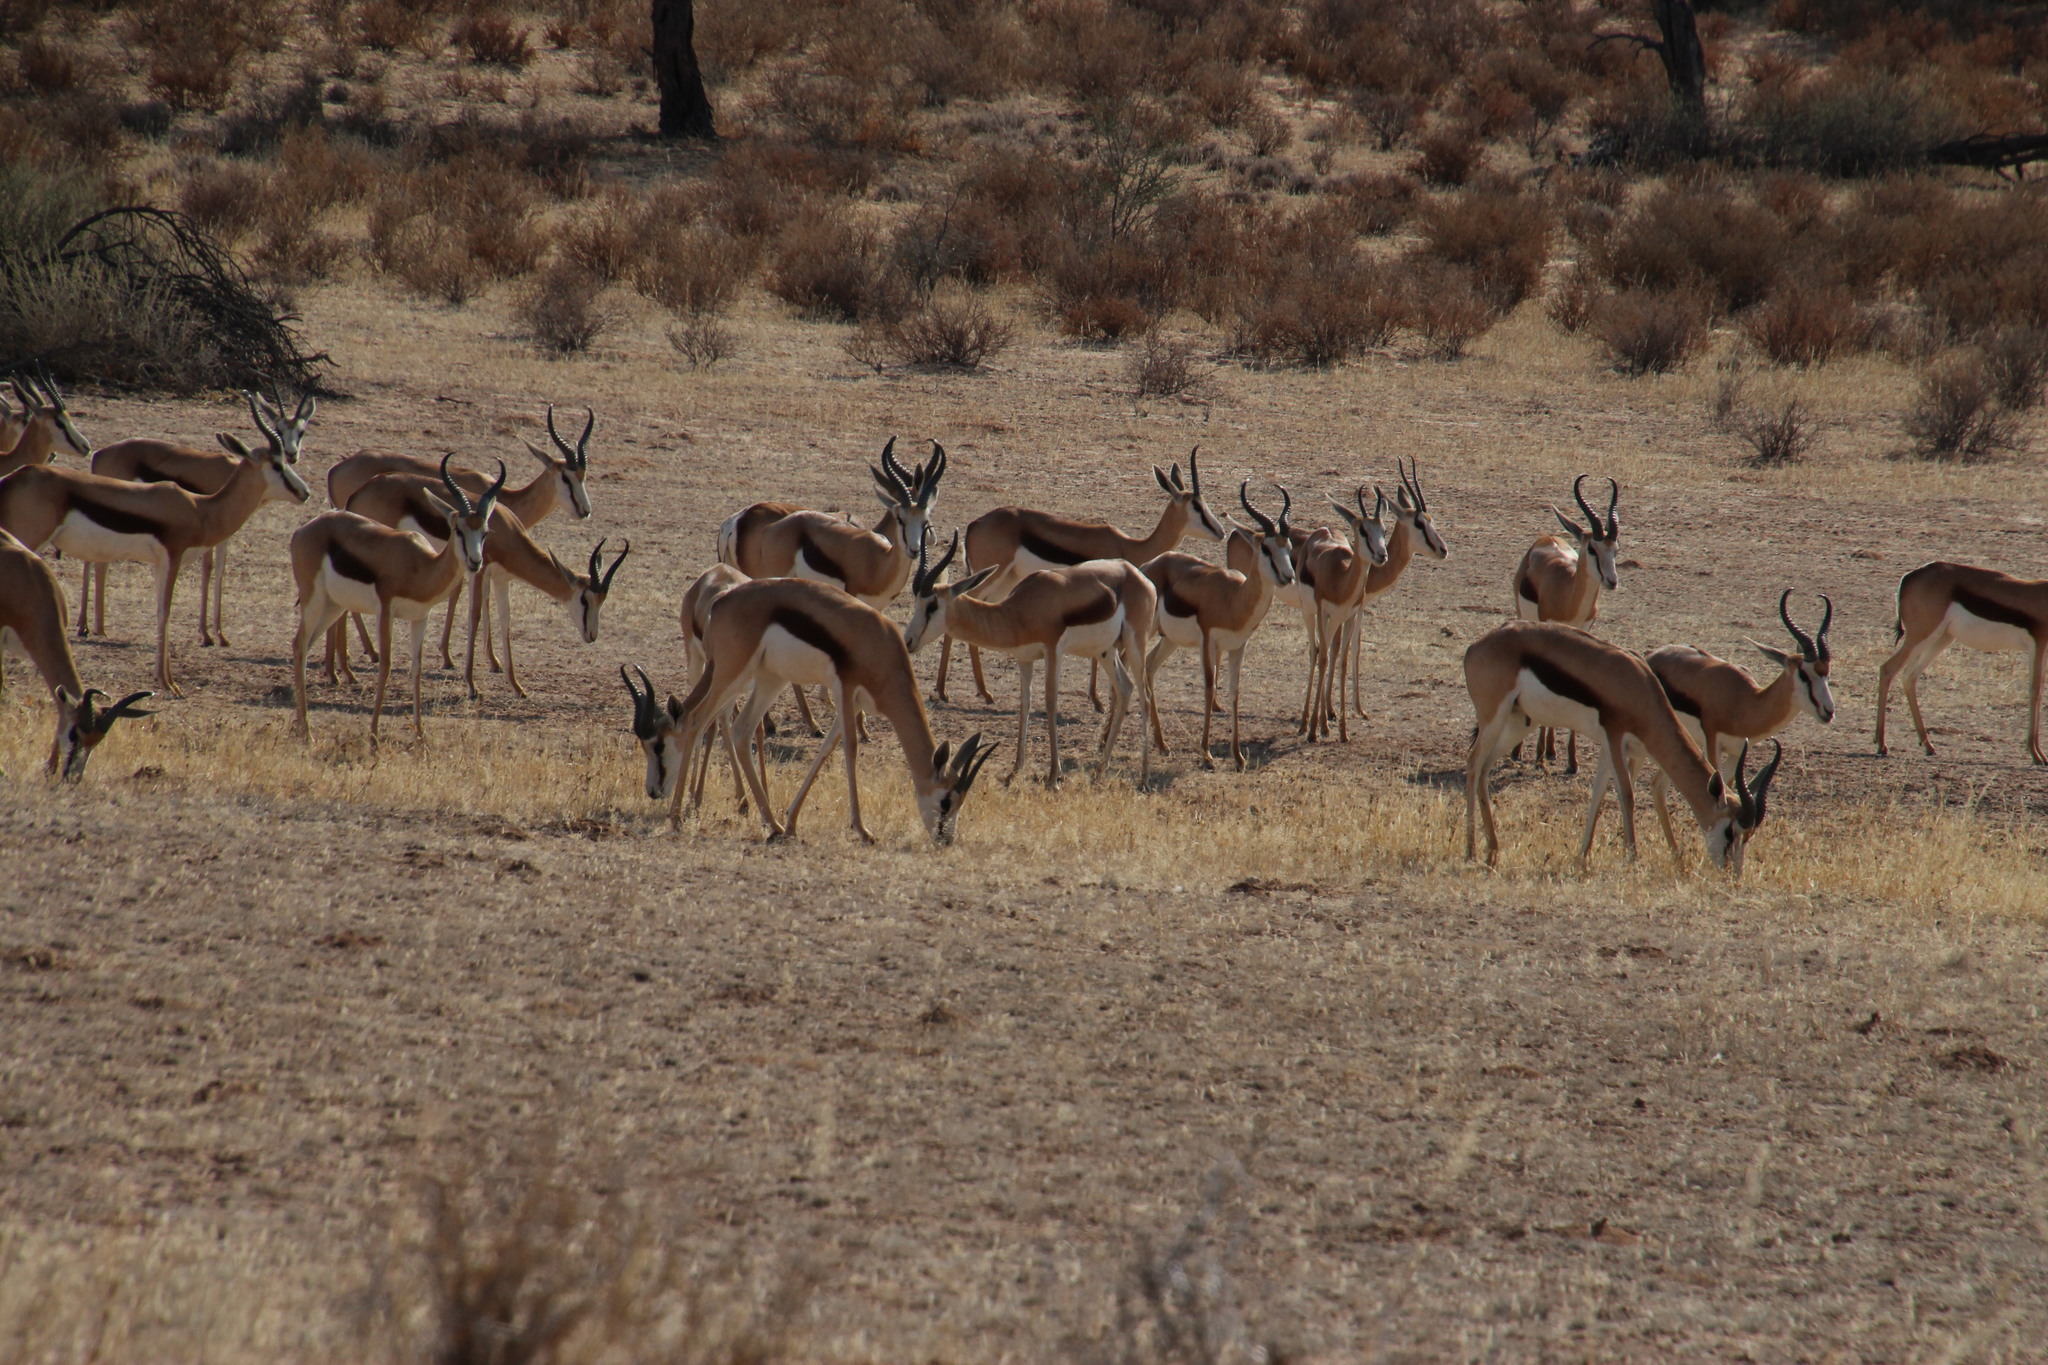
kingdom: Animalia
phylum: Chordata
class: Mammalia
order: Artiodactyla
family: Bovidae
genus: Antidorcas
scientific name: Antidorcas marsupialis
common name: Springbok
